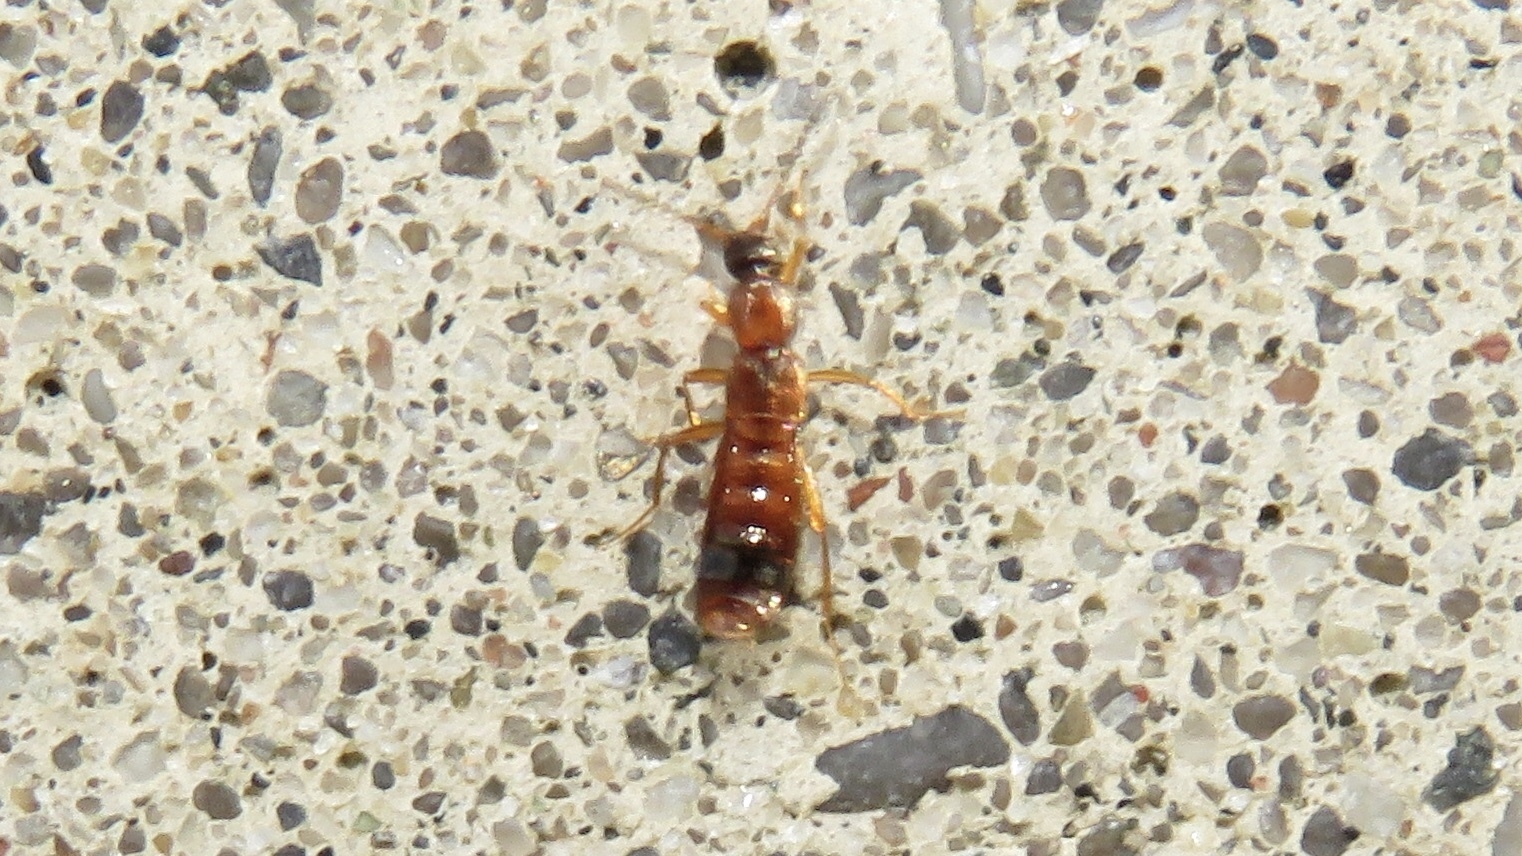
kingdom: Animalia
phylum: Arthropoda
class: Insecta
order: Coleoptera
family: Staphylinidae
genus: Drusilla
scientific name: Drusilla canaliculata
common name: Rove beetle
